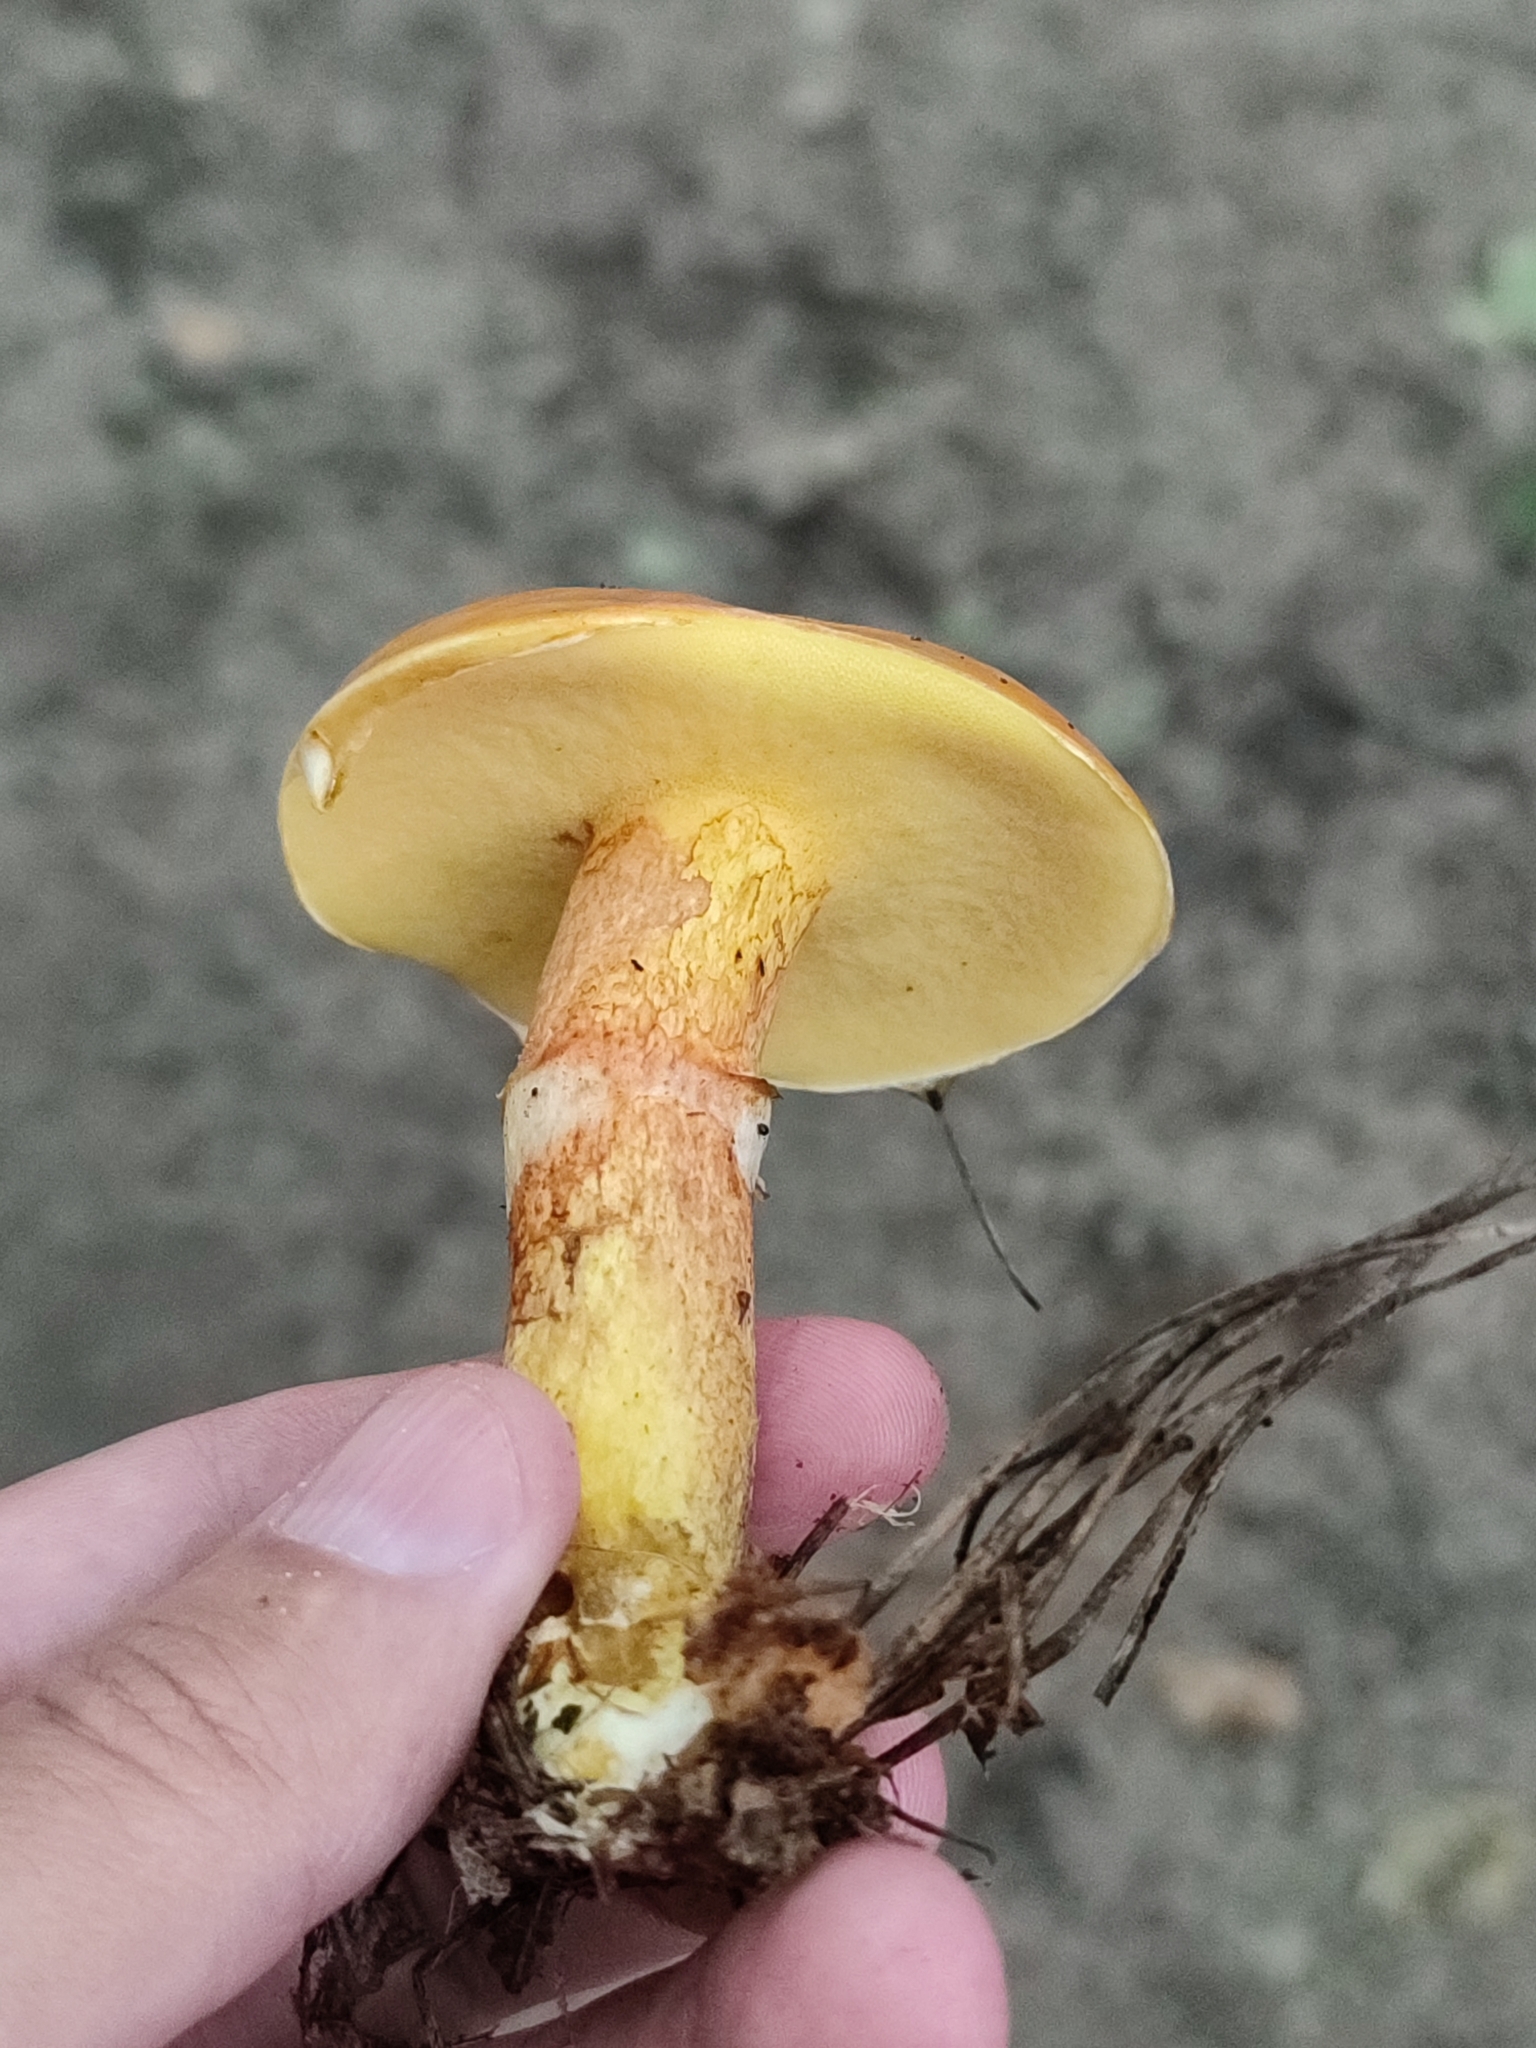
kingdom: Fungi
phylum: Basidiomycota
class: Agaricomycetes
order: Boletales
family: Suillaceae
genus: Suillus
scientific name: Suillus grevillei
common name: Larch bolete
